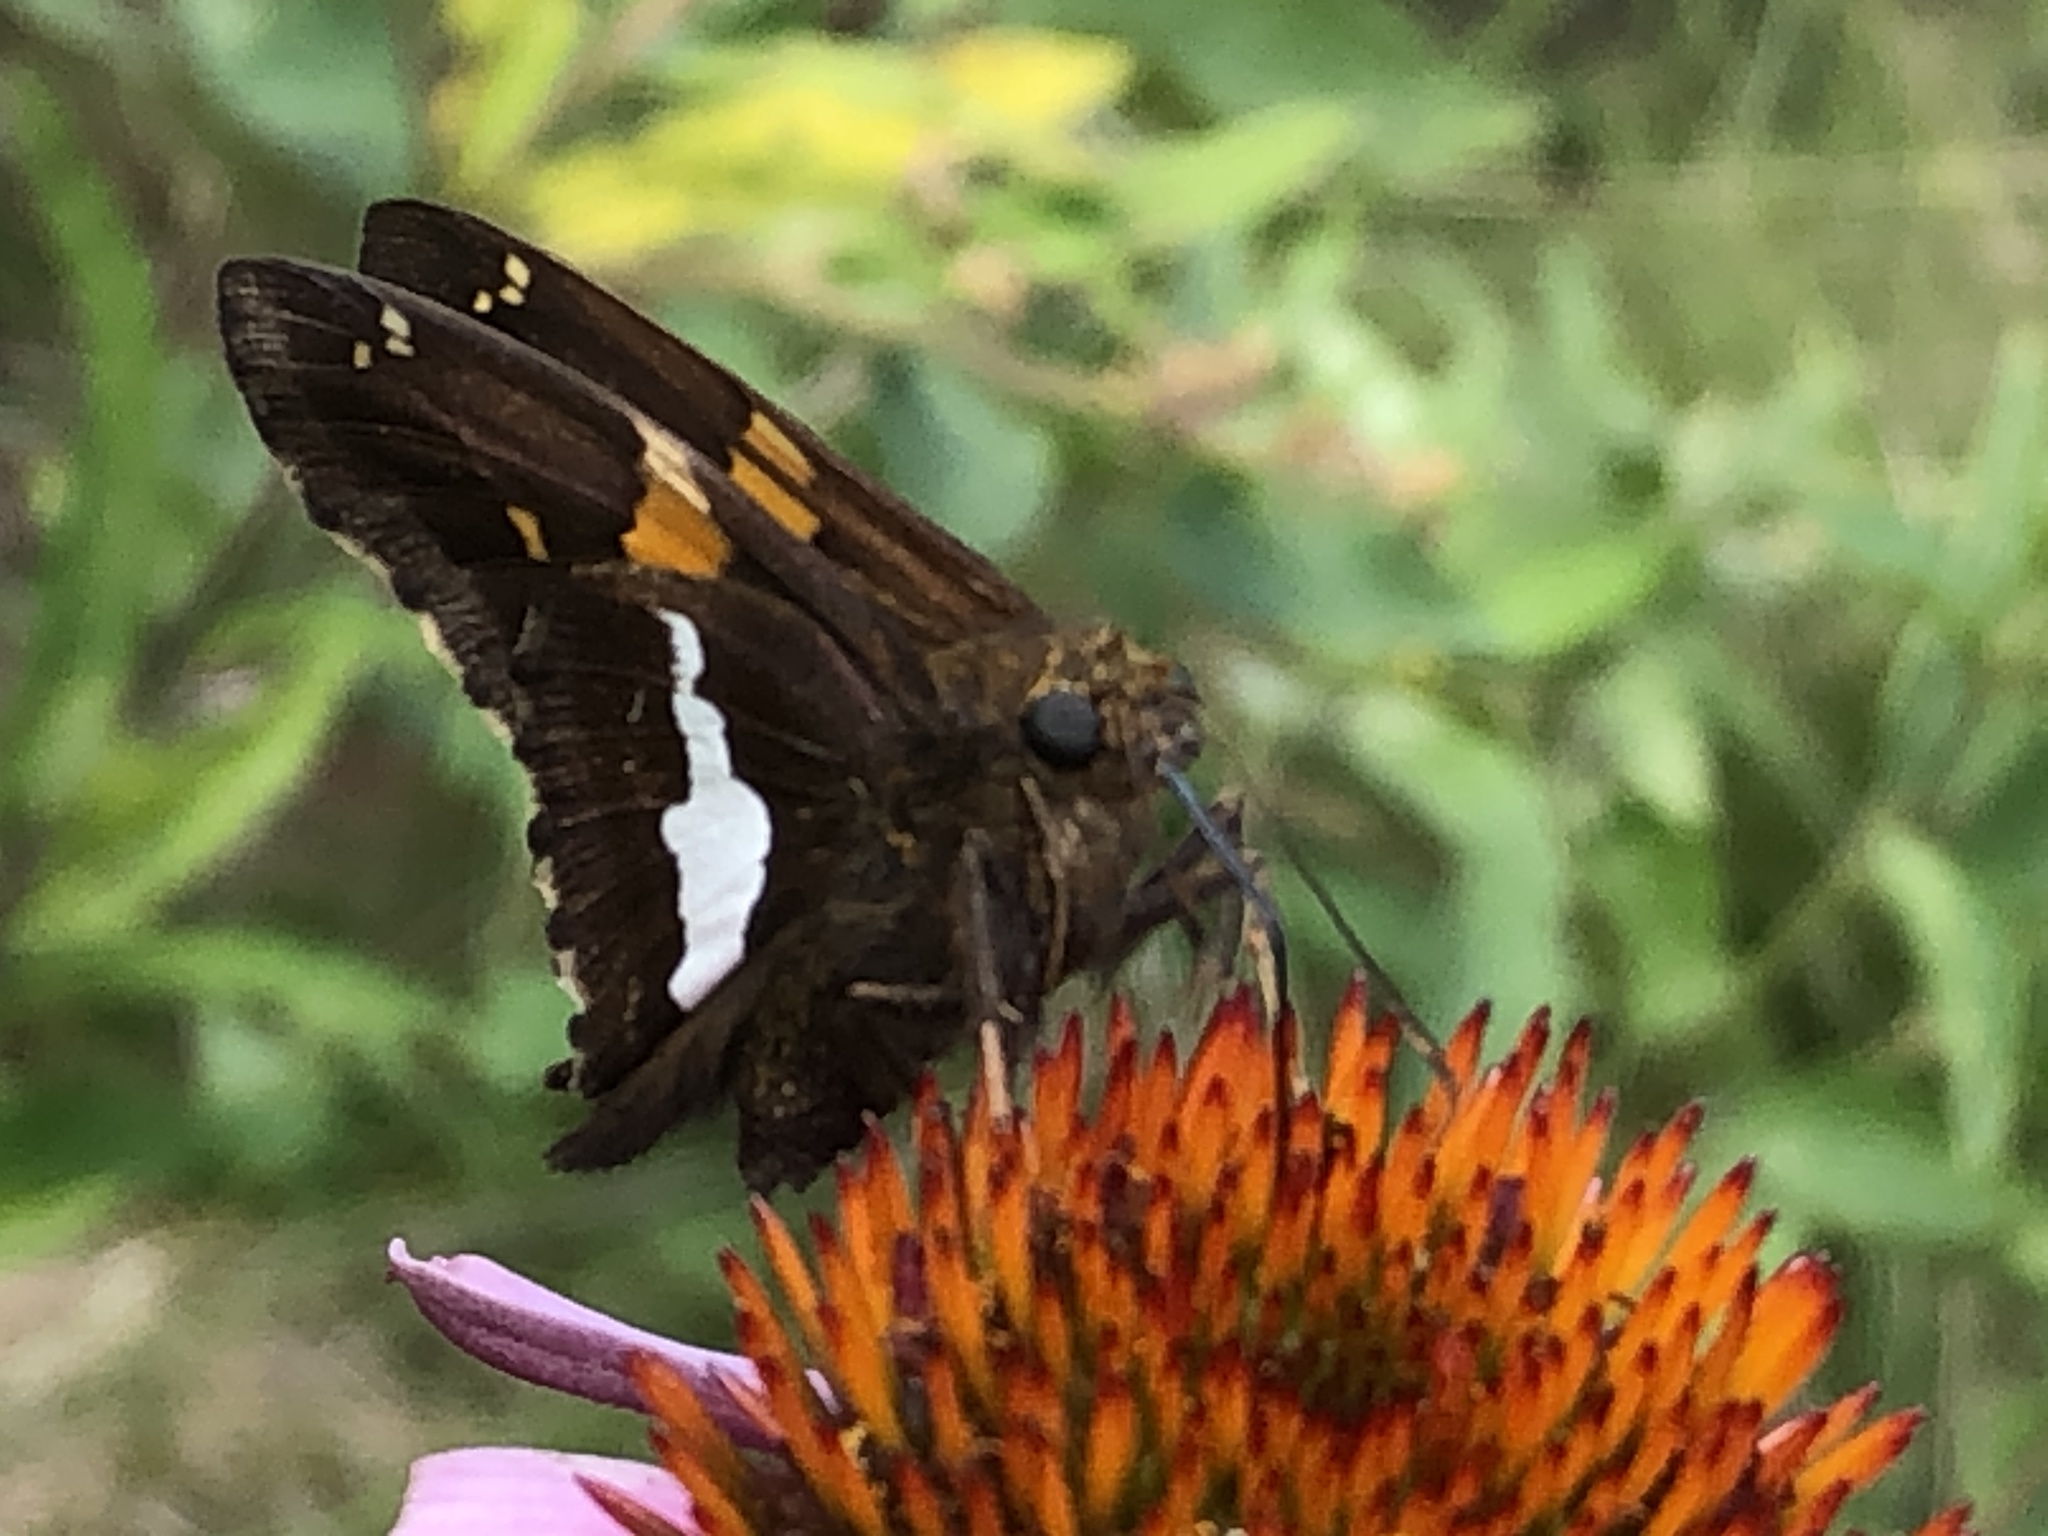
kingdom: Animalia
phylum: Arthropoda
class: Insecta
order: Lepidoptera
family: Hesperiidae
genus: Epargyreus
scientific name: Epargyreus clarus
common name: Silver-spotted skipper
